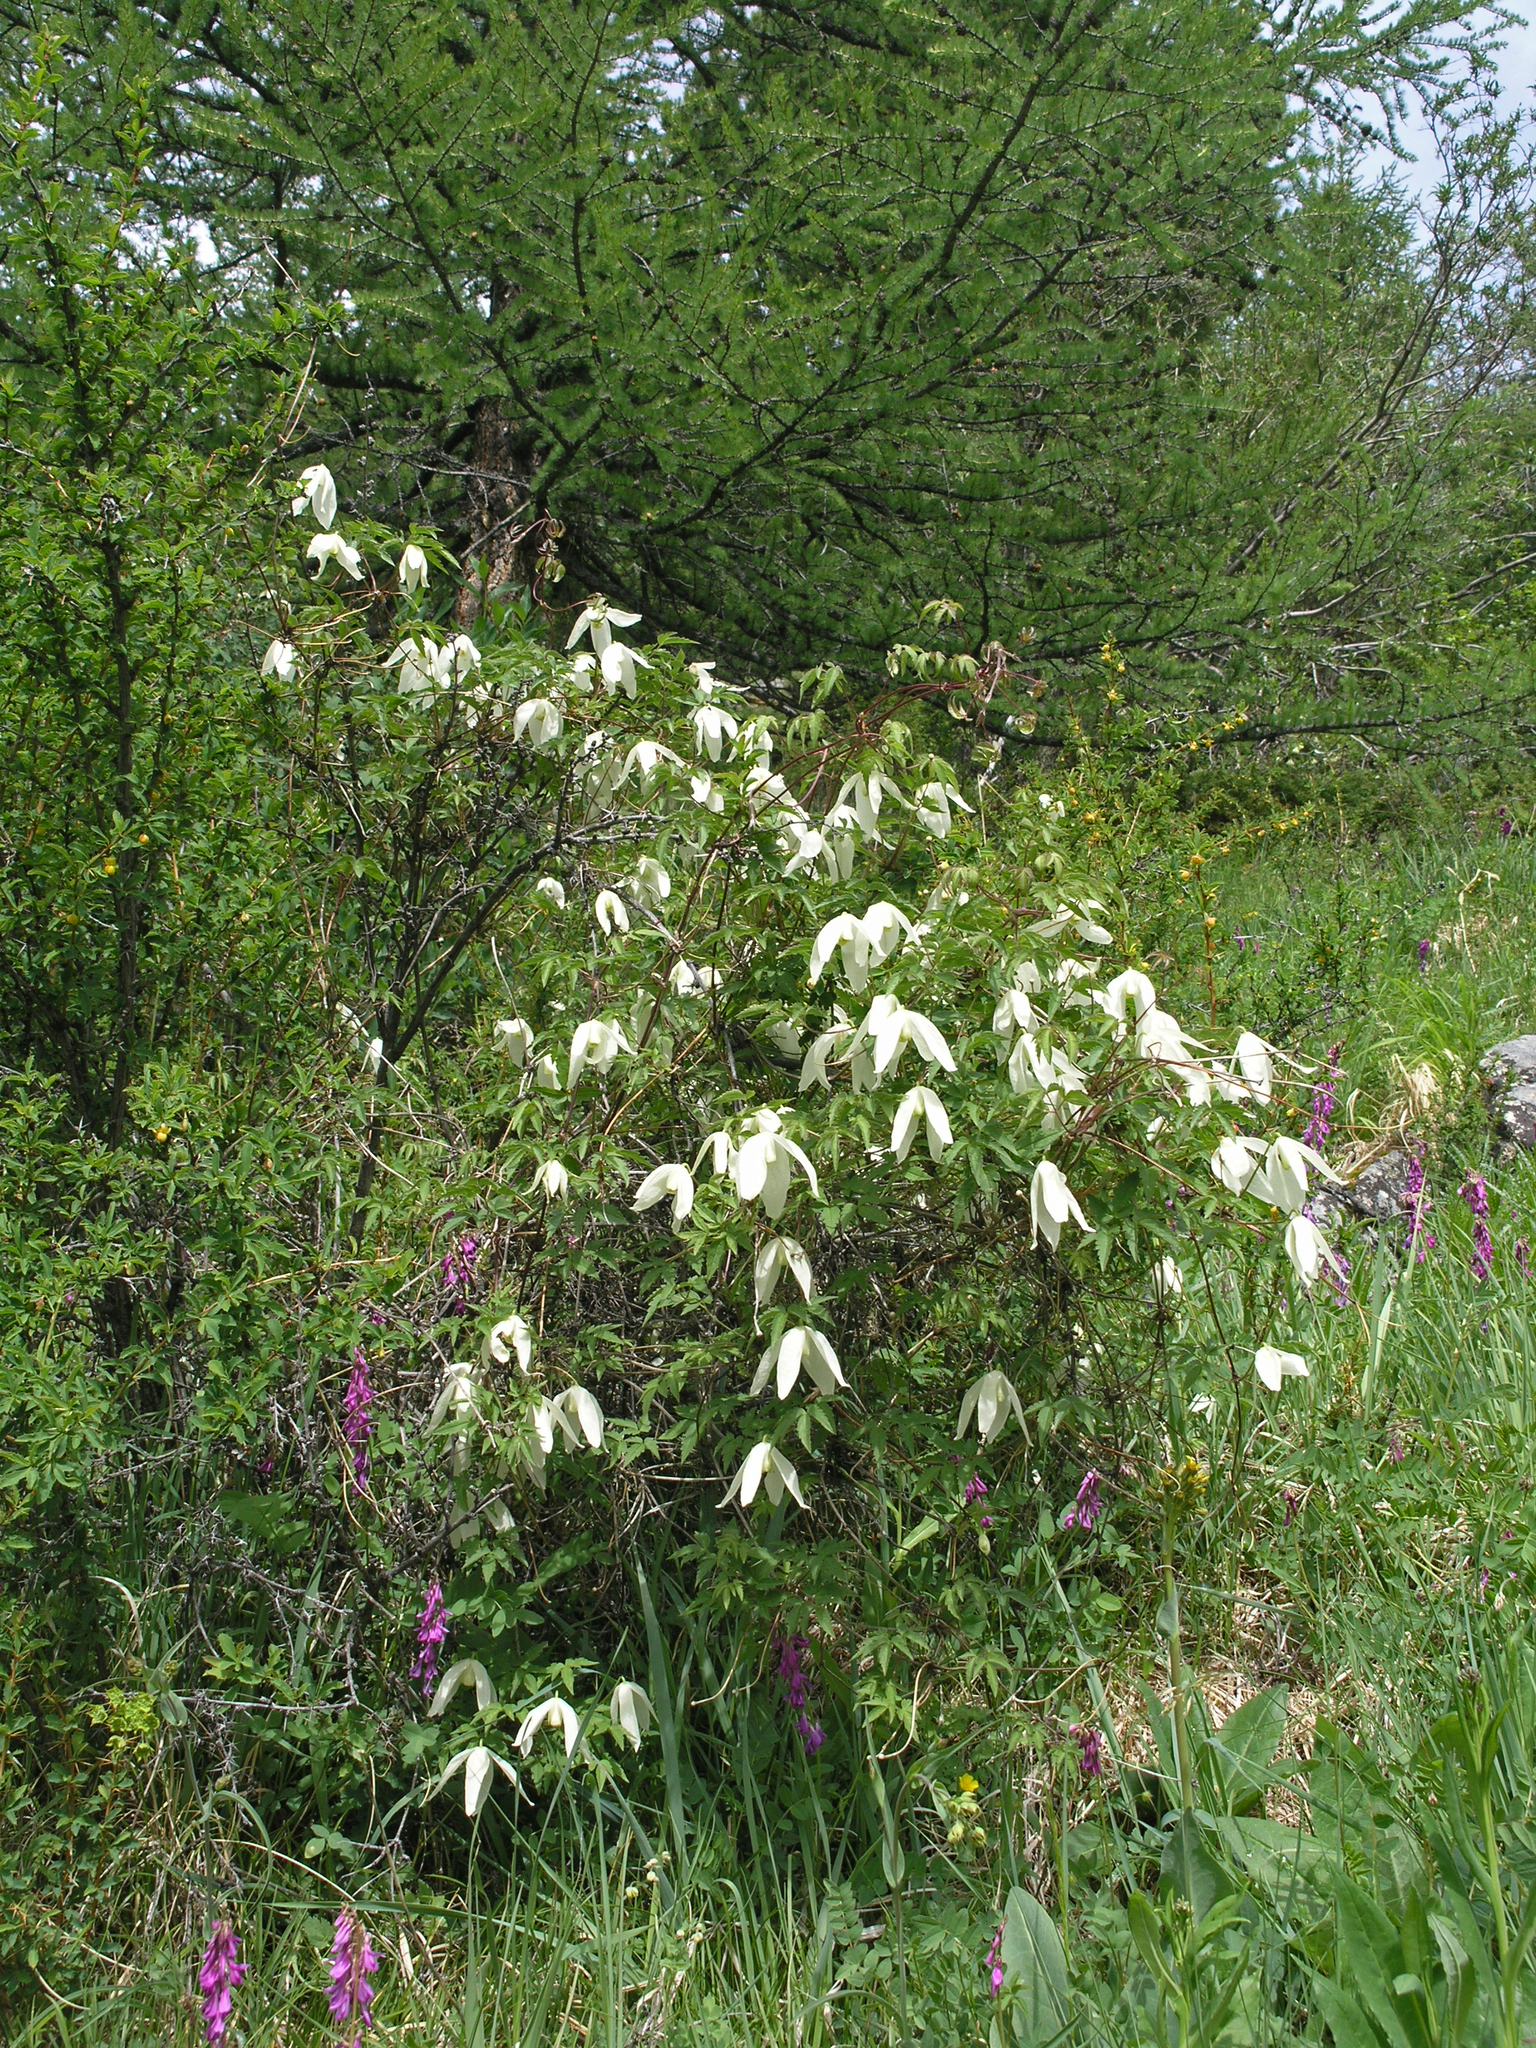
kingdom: Plantae
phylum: Tracheophyta
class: Magnoliopsida
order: Ranunculales
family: Ranunculaceae
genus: Clematis
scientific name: Clematis sibirica
